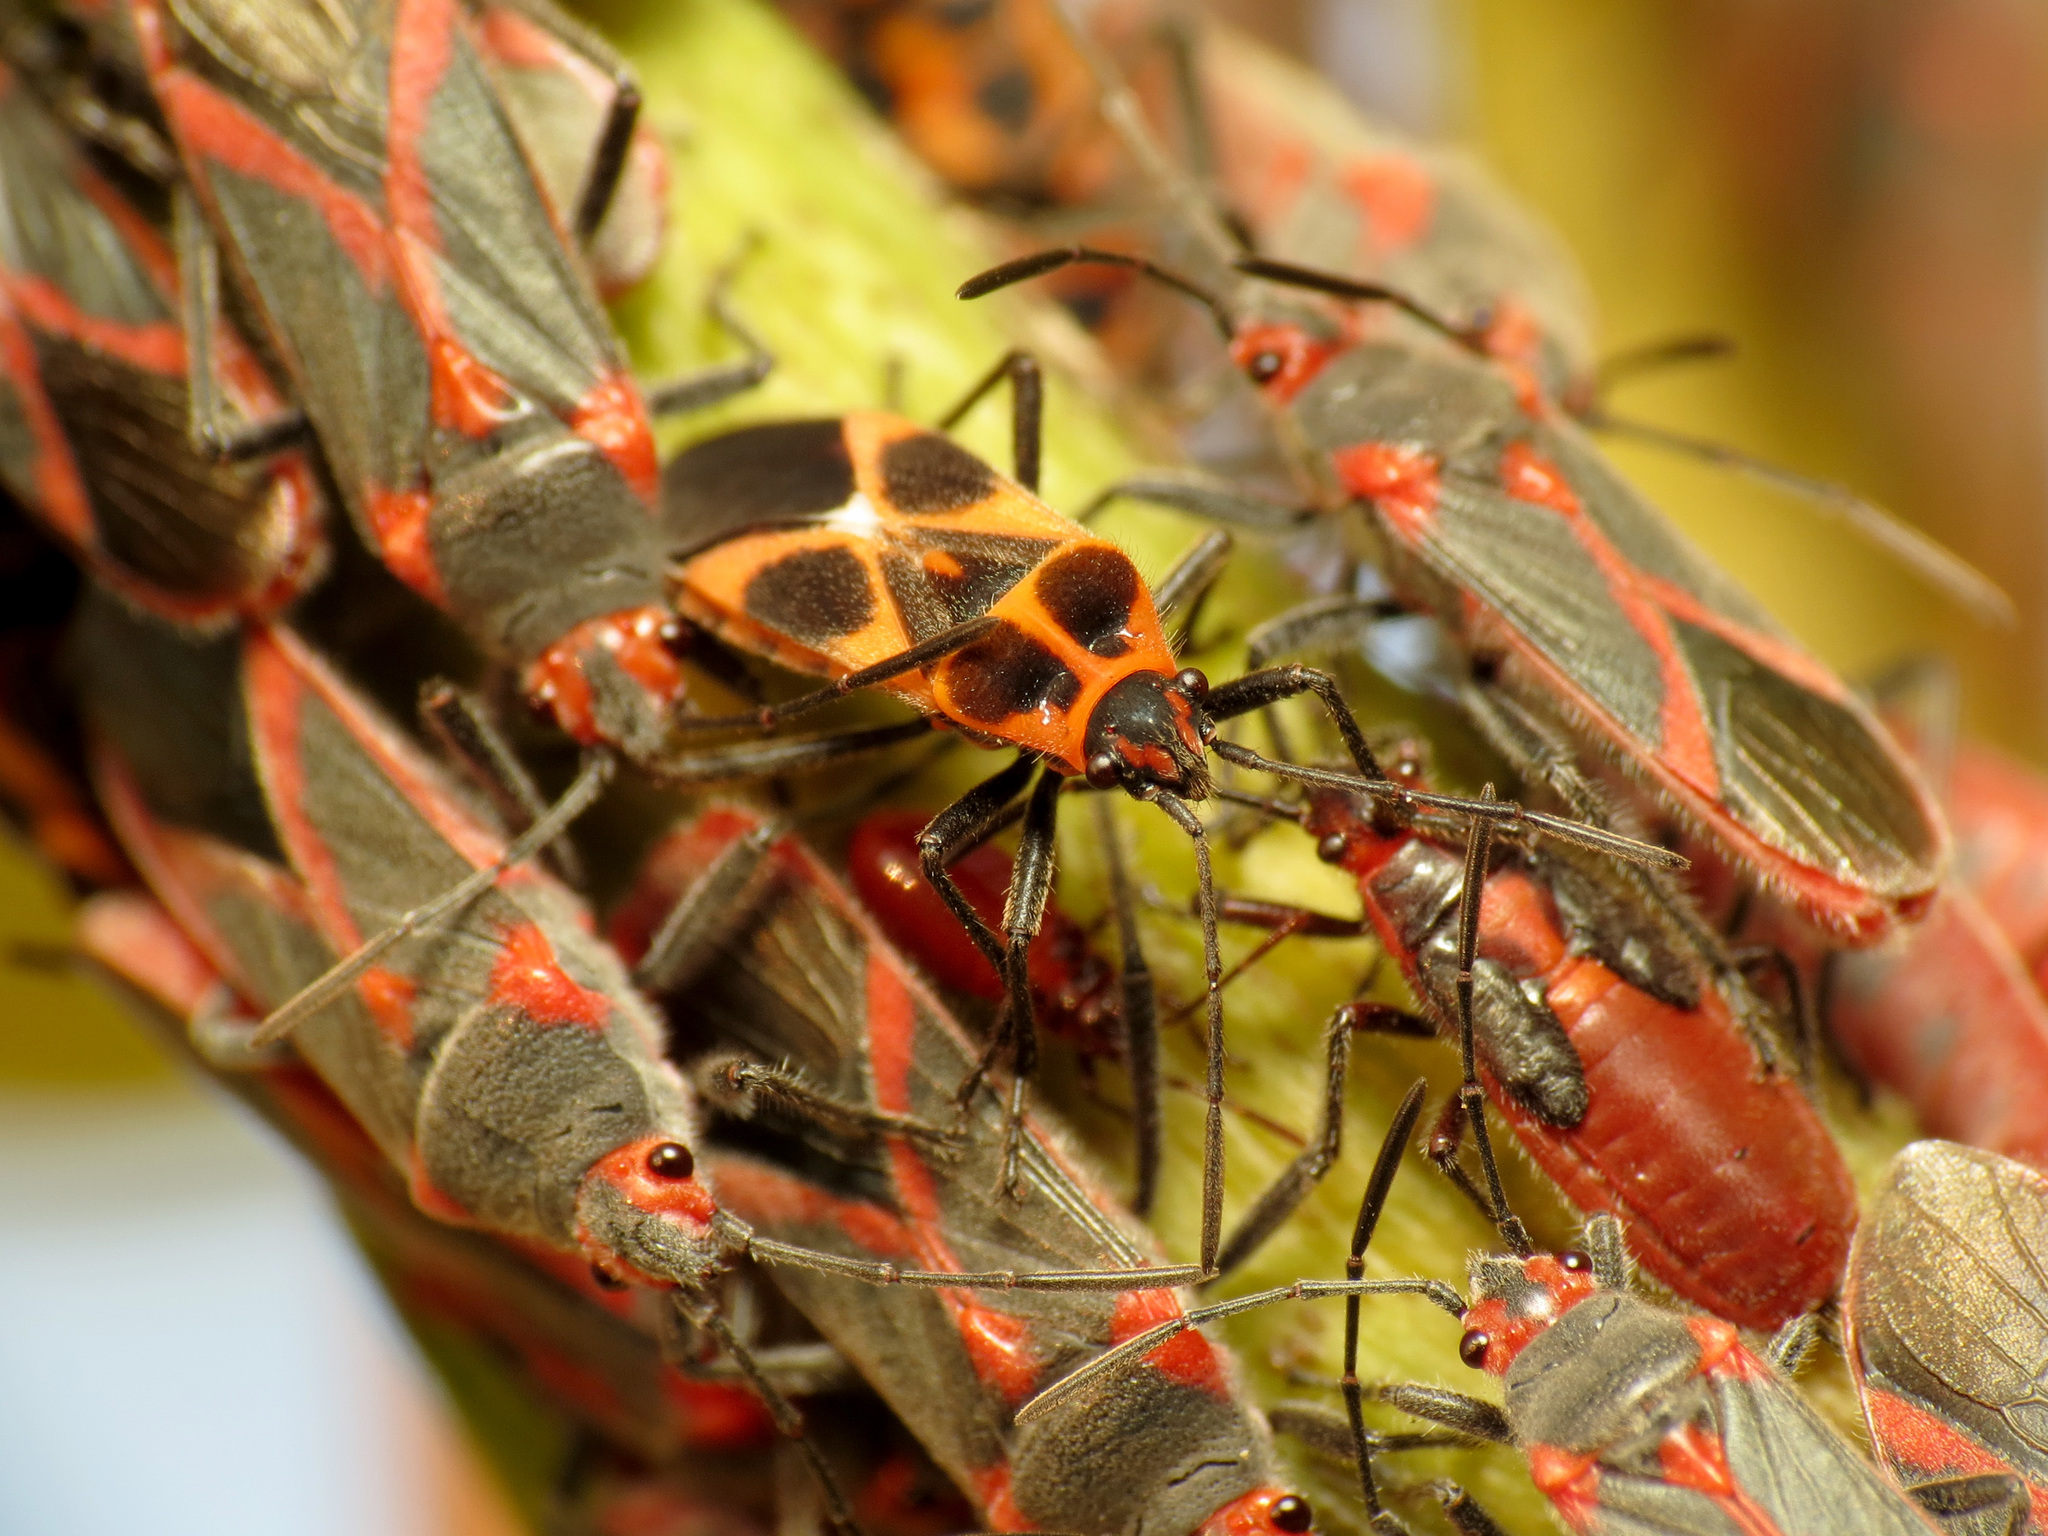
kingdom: Animalia
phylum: Arthropoda
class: Insecta
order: Hemiptera
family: Lygaeidae
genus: Tropidothorax
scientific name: Tropidothorax sternalis
